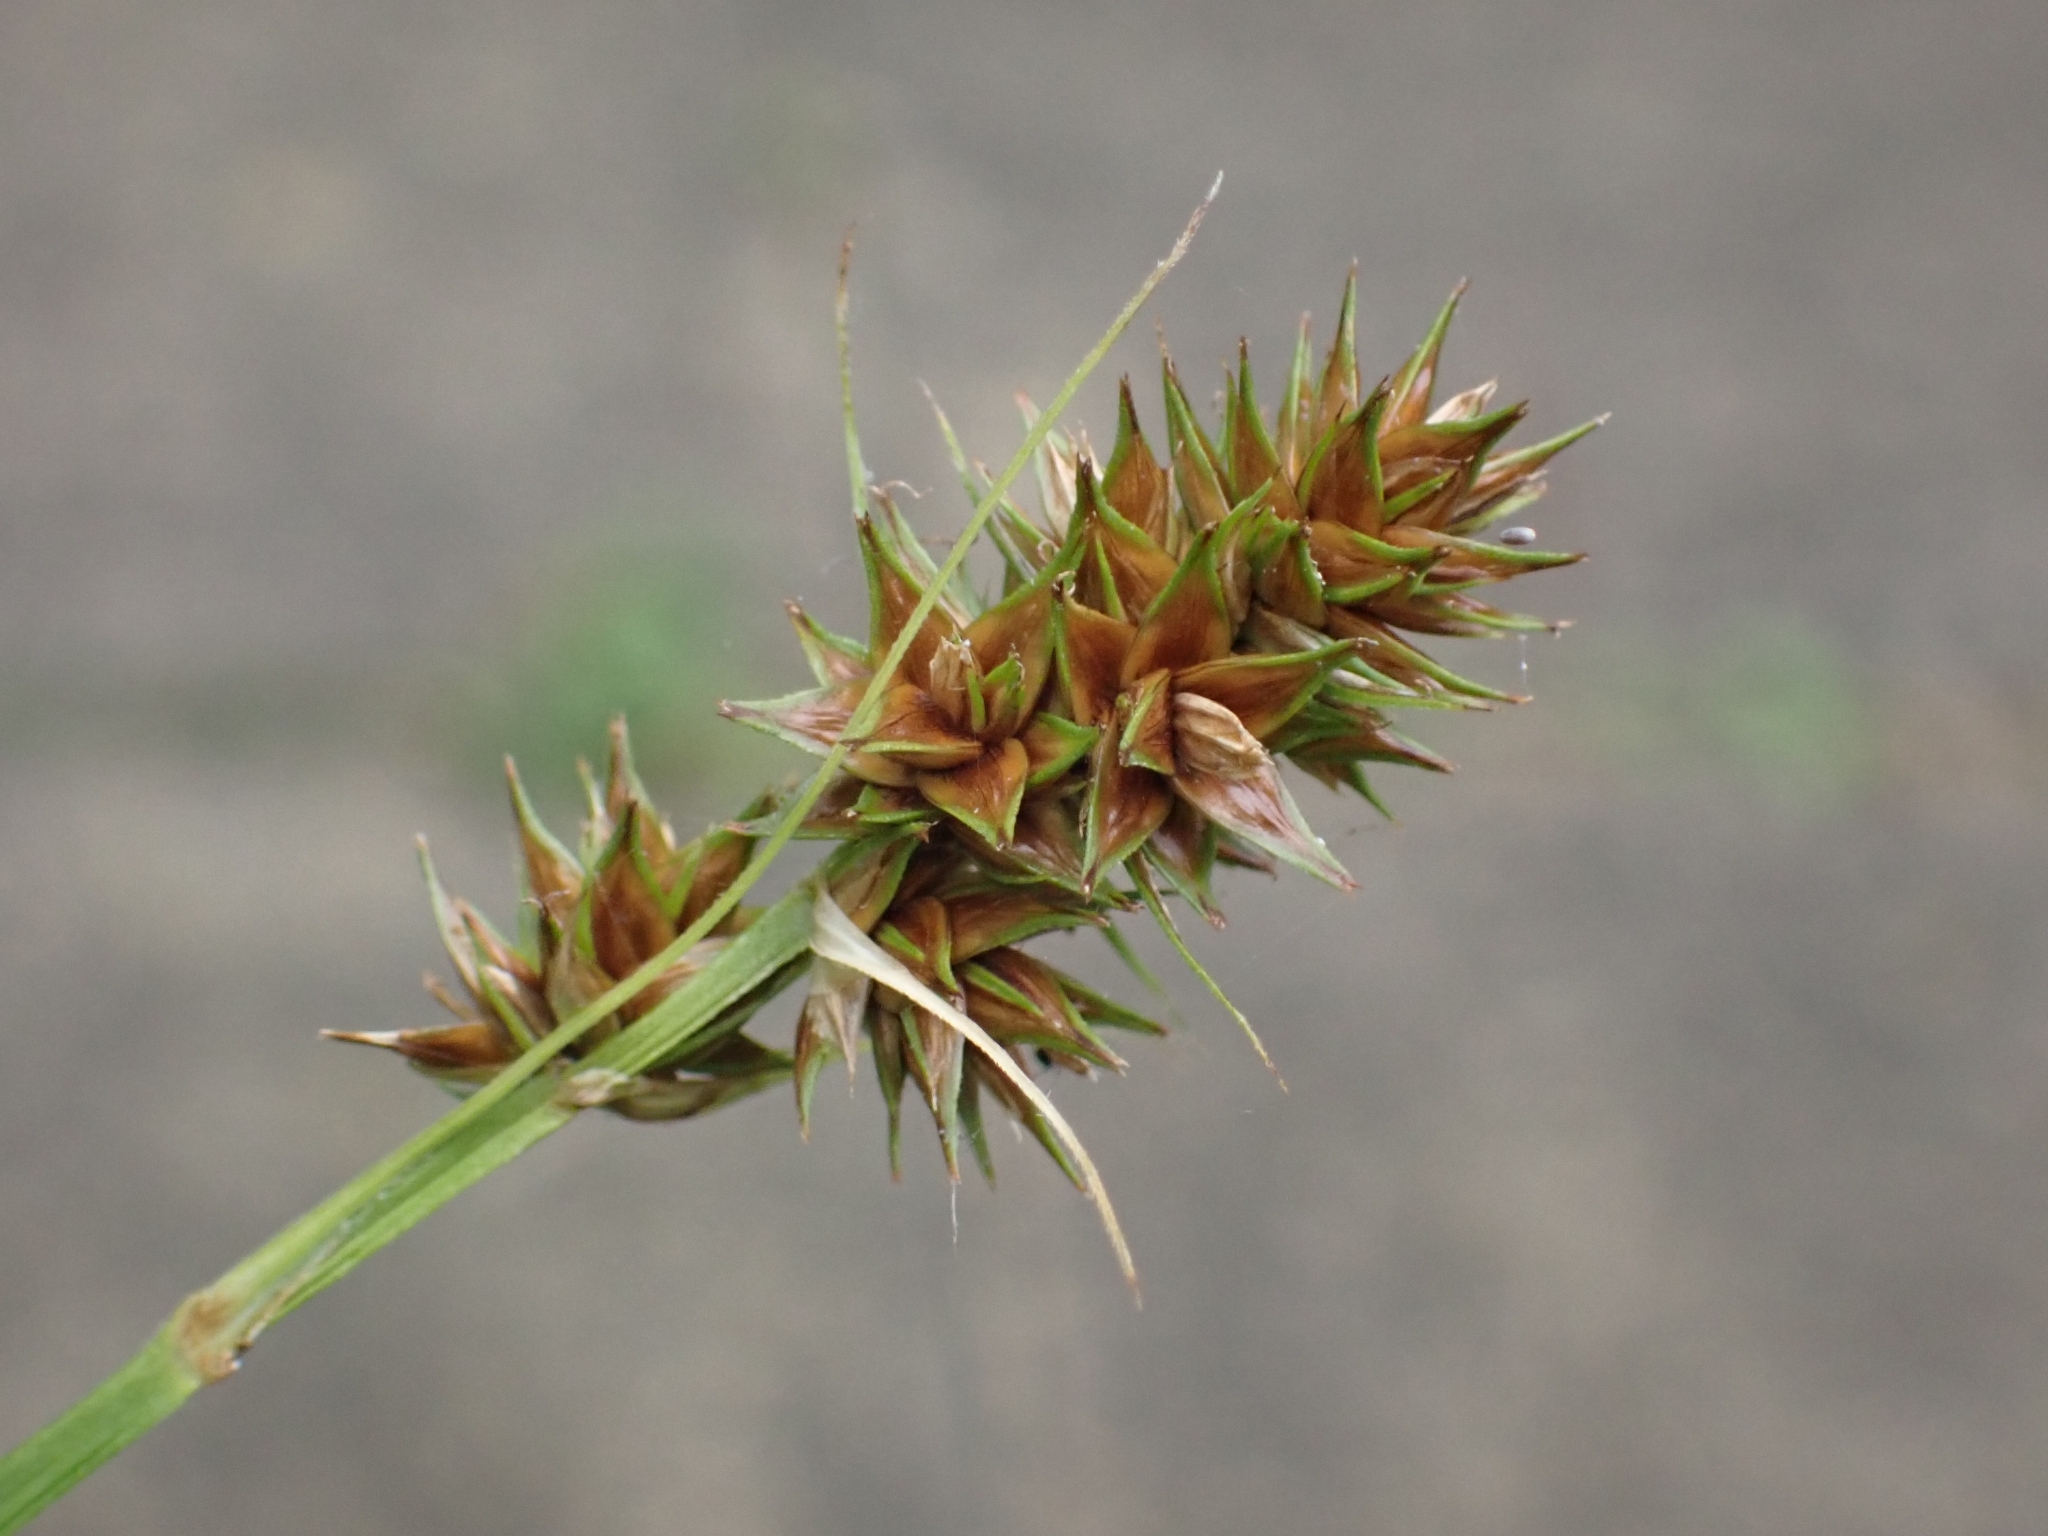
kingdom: Plantae
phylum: Tracheophyta
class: Liliopsida
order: Poales
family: Cyperaceae
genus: Carex
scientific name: Carex otrubae
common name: False fox-sedge
